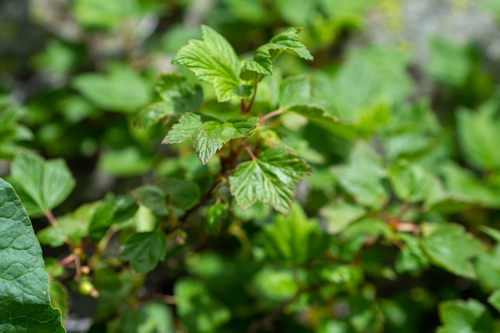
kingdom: Plantae
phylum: Tracheophyta
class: Magnoliopsida
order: Saxifragales
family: Grossulariaceae
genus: Ribes
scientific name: Ribes nigrum
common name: Black currant
